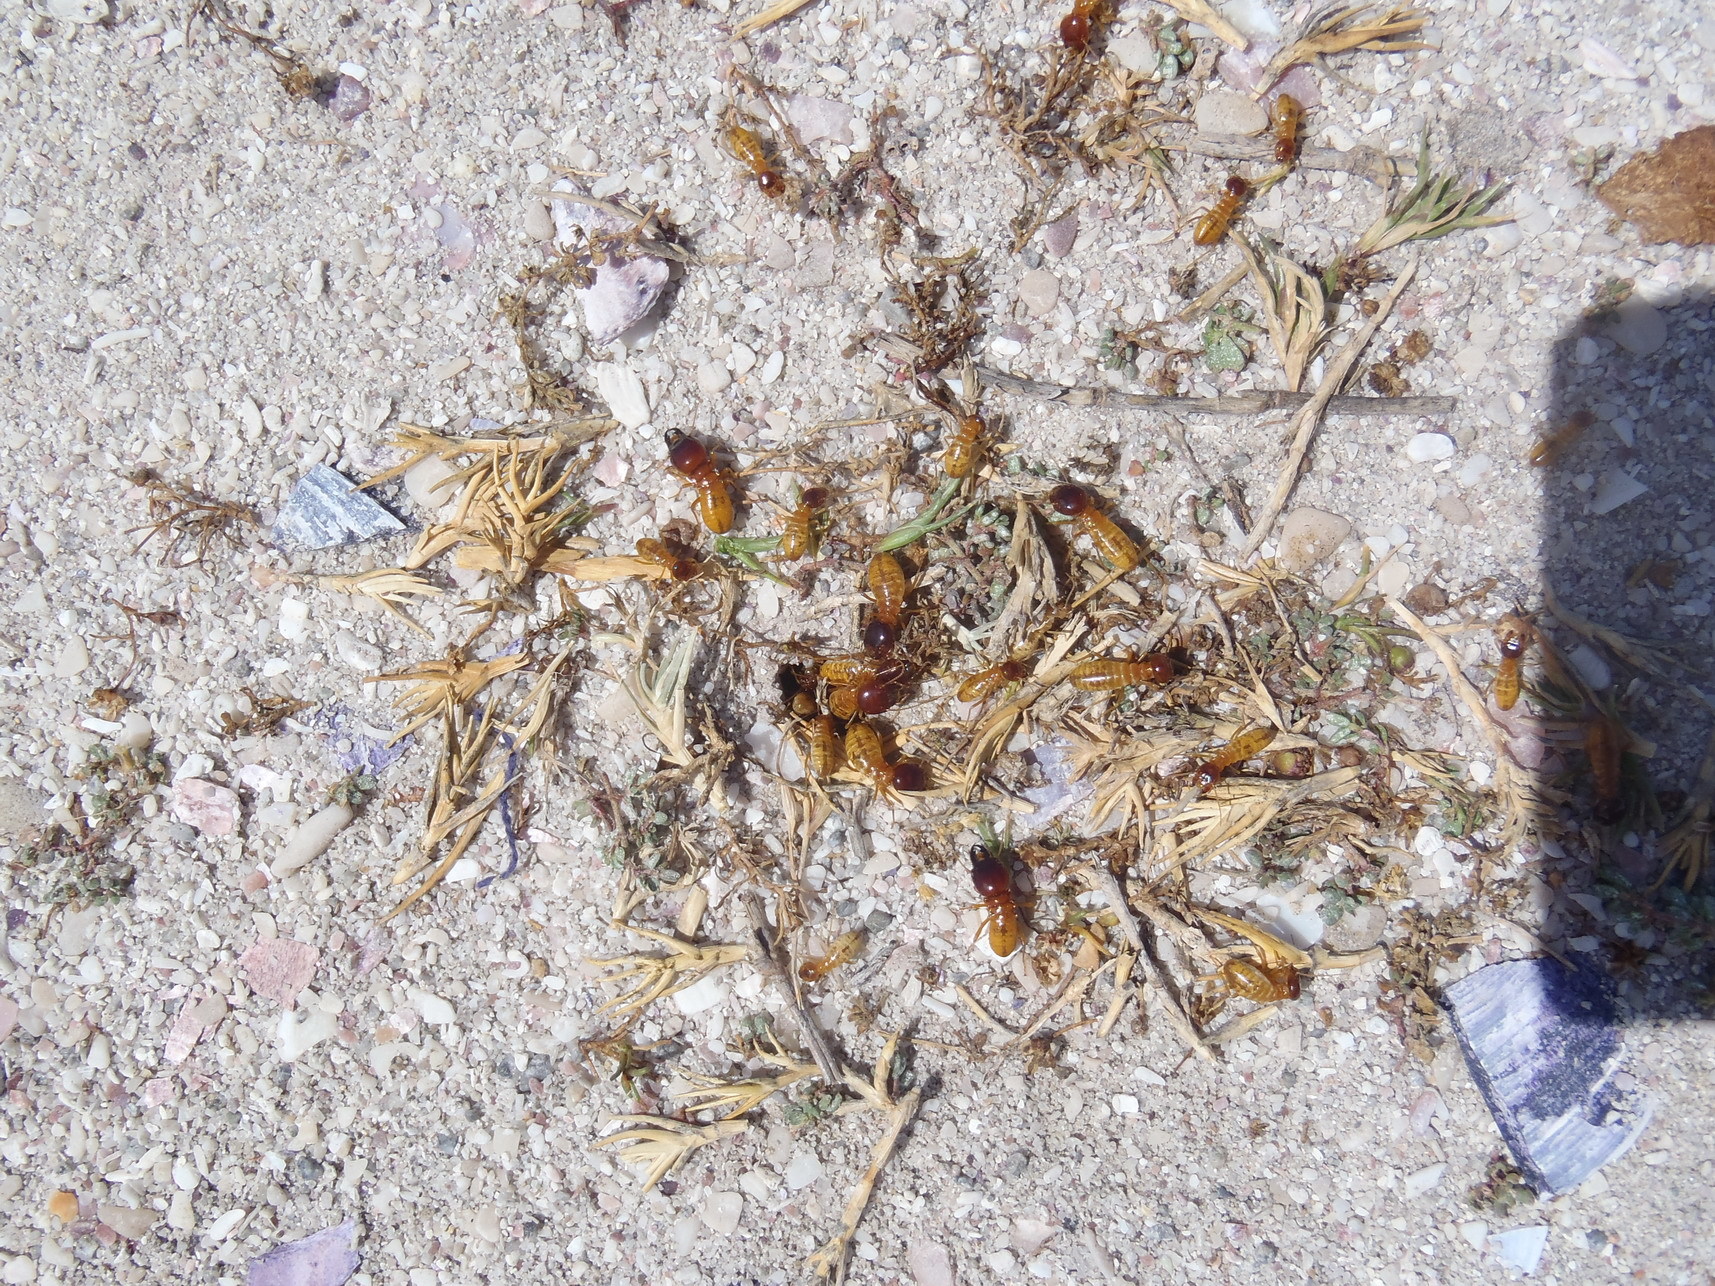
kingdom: Animalia
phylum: Arthropoda
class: Insecta
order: Blattodea
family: Hodotermitidae
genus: Microhodotermes
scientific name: Microhodotermes viator
